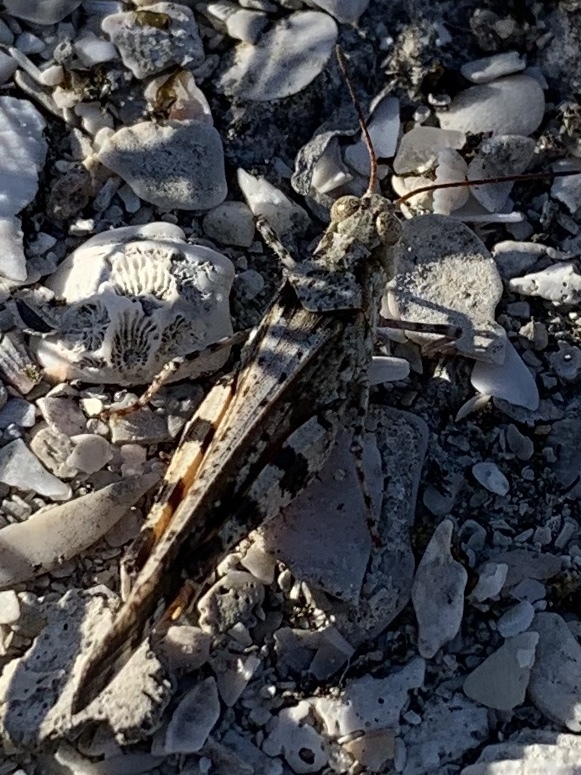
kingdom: Animalia
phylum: Arthropoda
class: Insecta
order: Orthoptera
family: Acrididae
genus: Spharagemon
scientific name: Spharagemon marmoratum
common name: Marbled grasshopper
